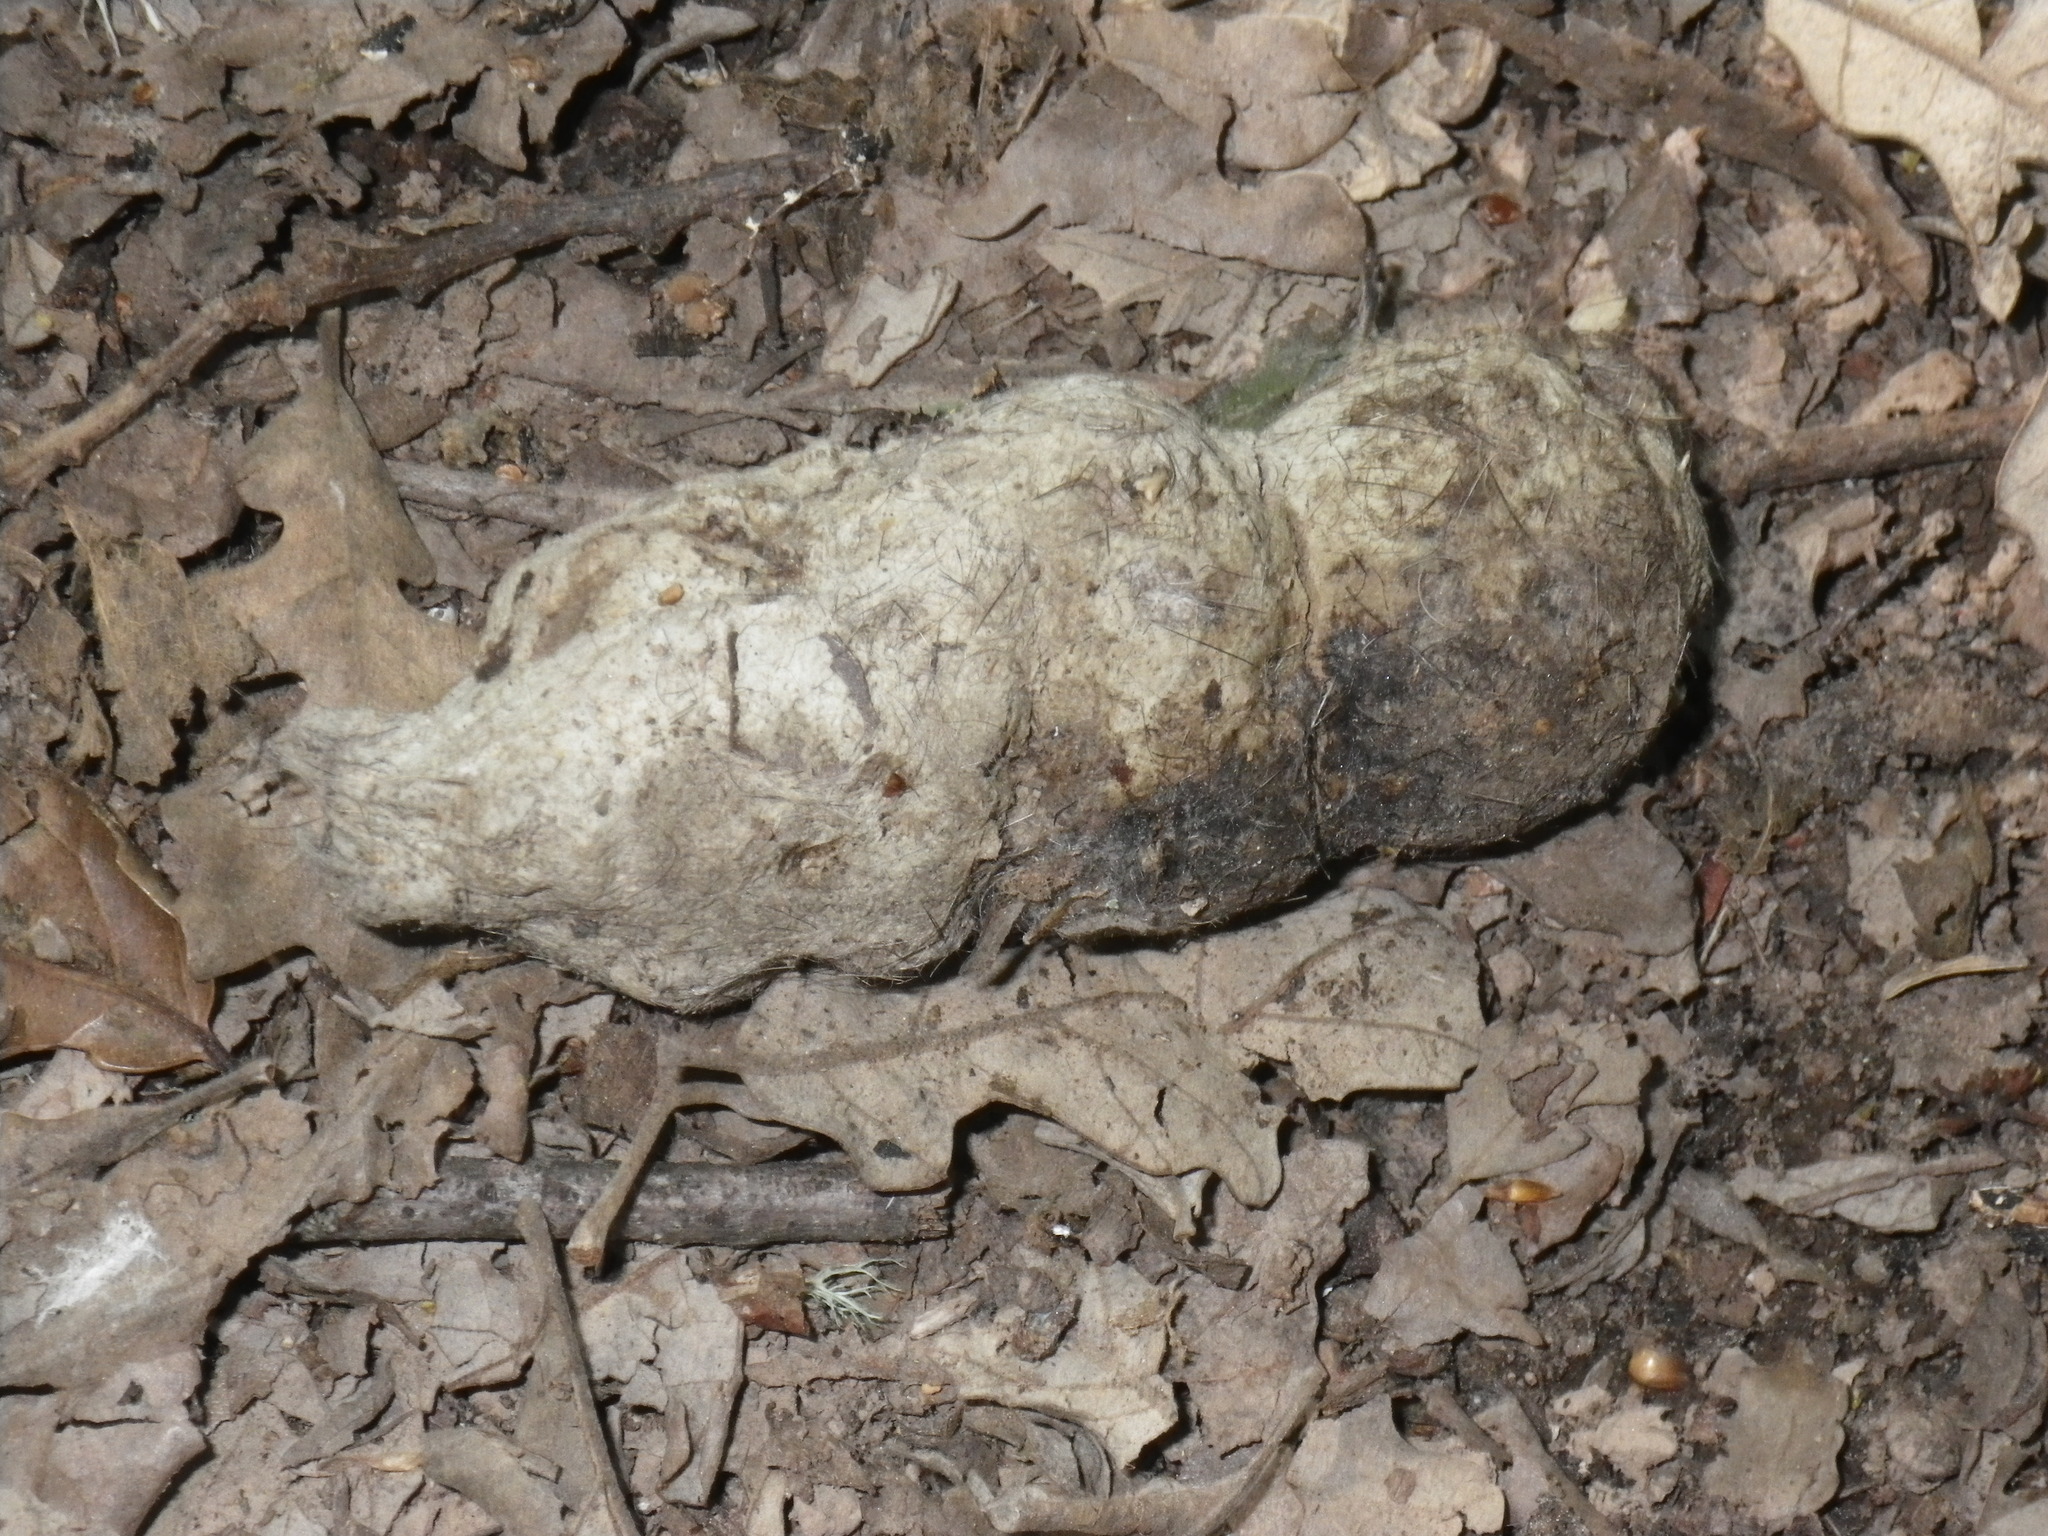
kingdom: Animalia
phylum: Chordata
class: Mammalia
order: Carnivora
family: Felidae
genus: Puma
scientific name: Puma concolor
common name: Puma
